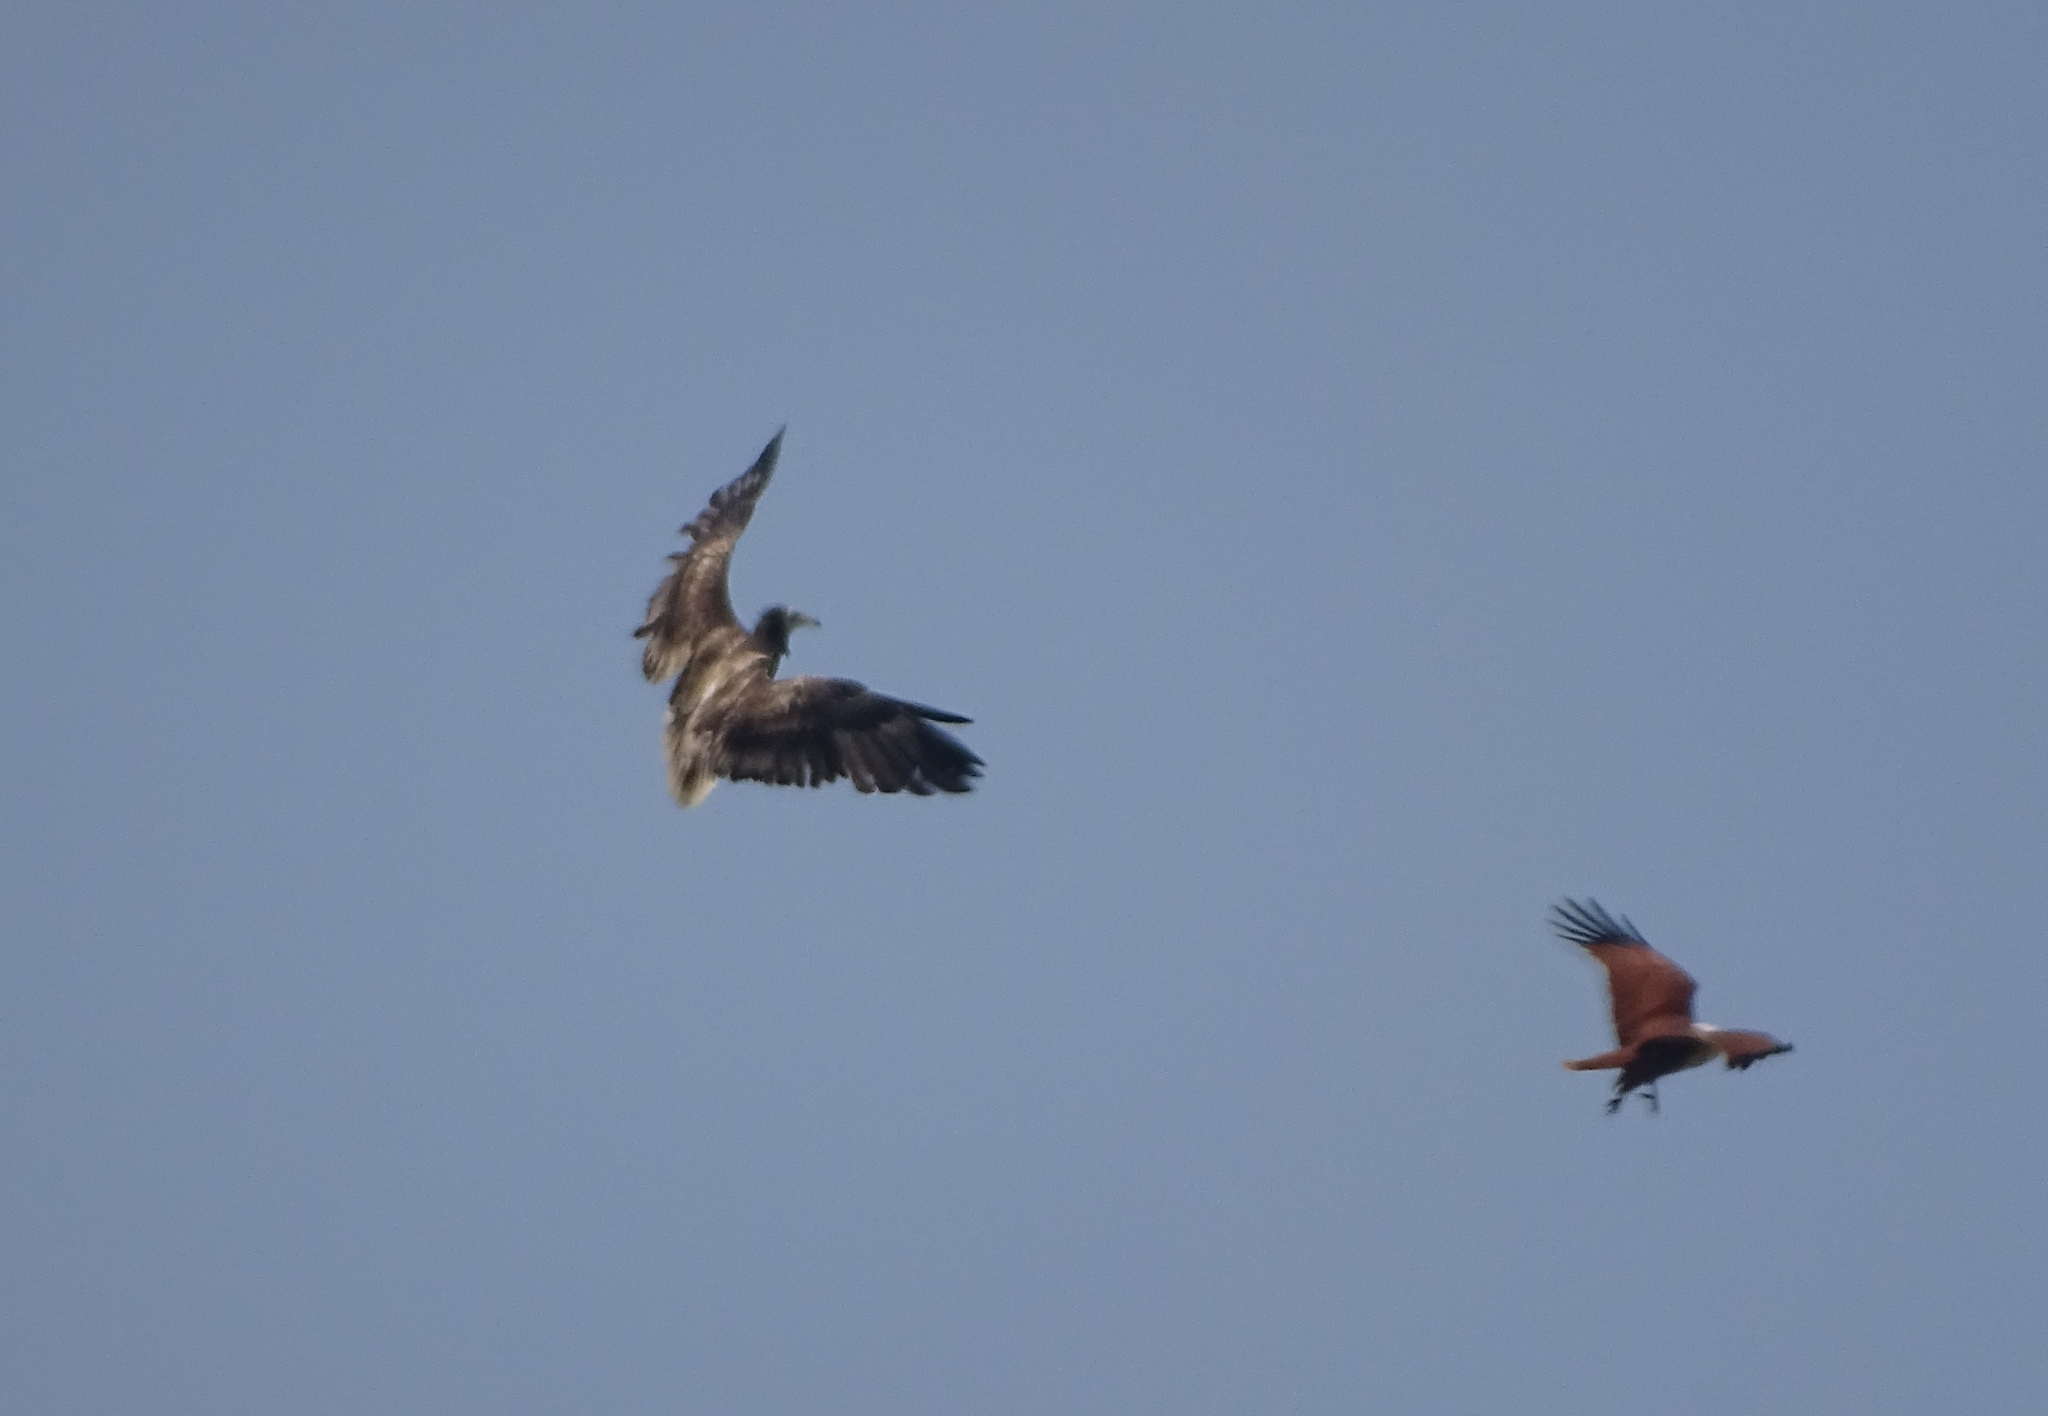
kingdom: Animalia
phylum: Chordata
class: Aves
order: Accipitriformes
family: Accipitridae
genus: Neophron
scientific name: Neophron percnopterus
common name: Egyptian vulture
